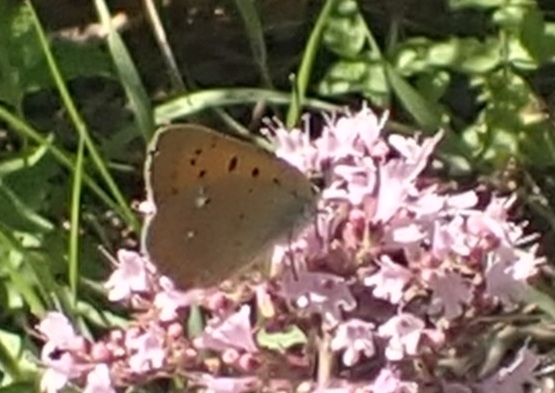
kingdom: Animalia
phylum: Arthropoda
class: Insecta
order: Lepidoptera
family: Lycaenidae
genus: Lycaena
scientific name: Lycaena virgaureae
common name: Scarce copper
